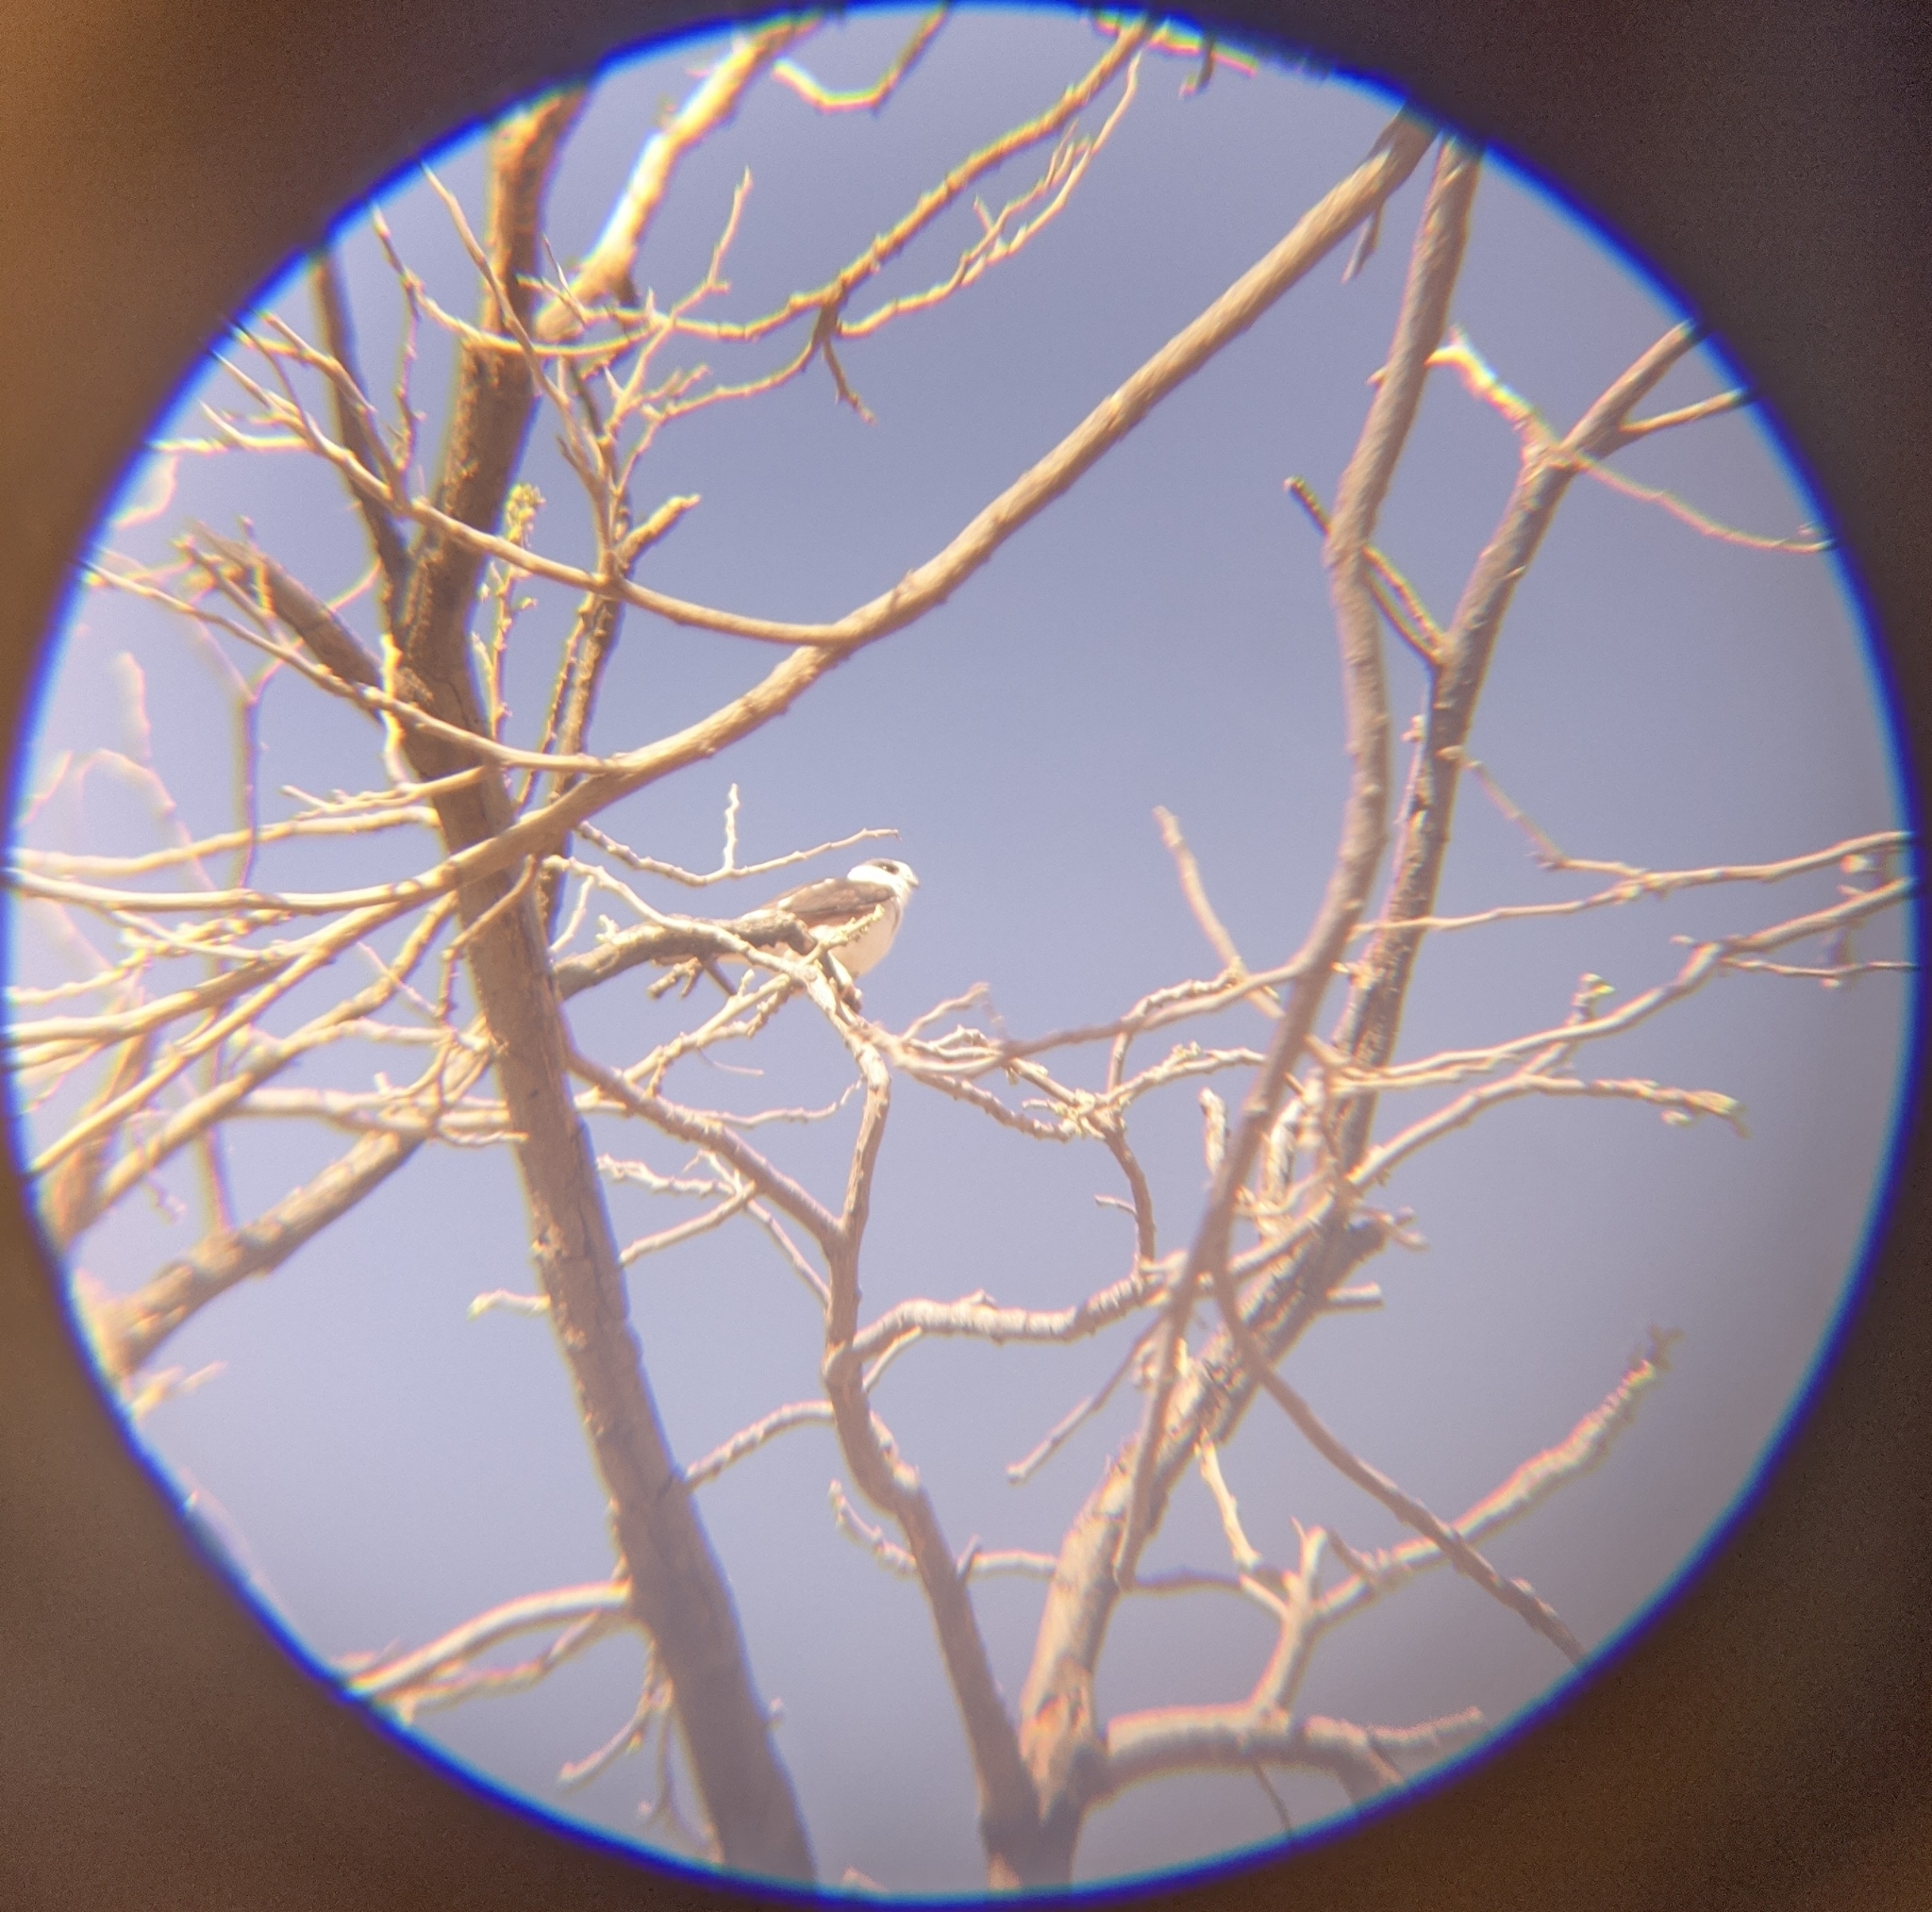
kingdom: Animalia
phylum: Chordata
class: Aves
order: Accipitriformes
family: Accipitridae
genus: Gampsonyx
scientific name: Gampsonyx swainsonii
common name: Pearl kite
